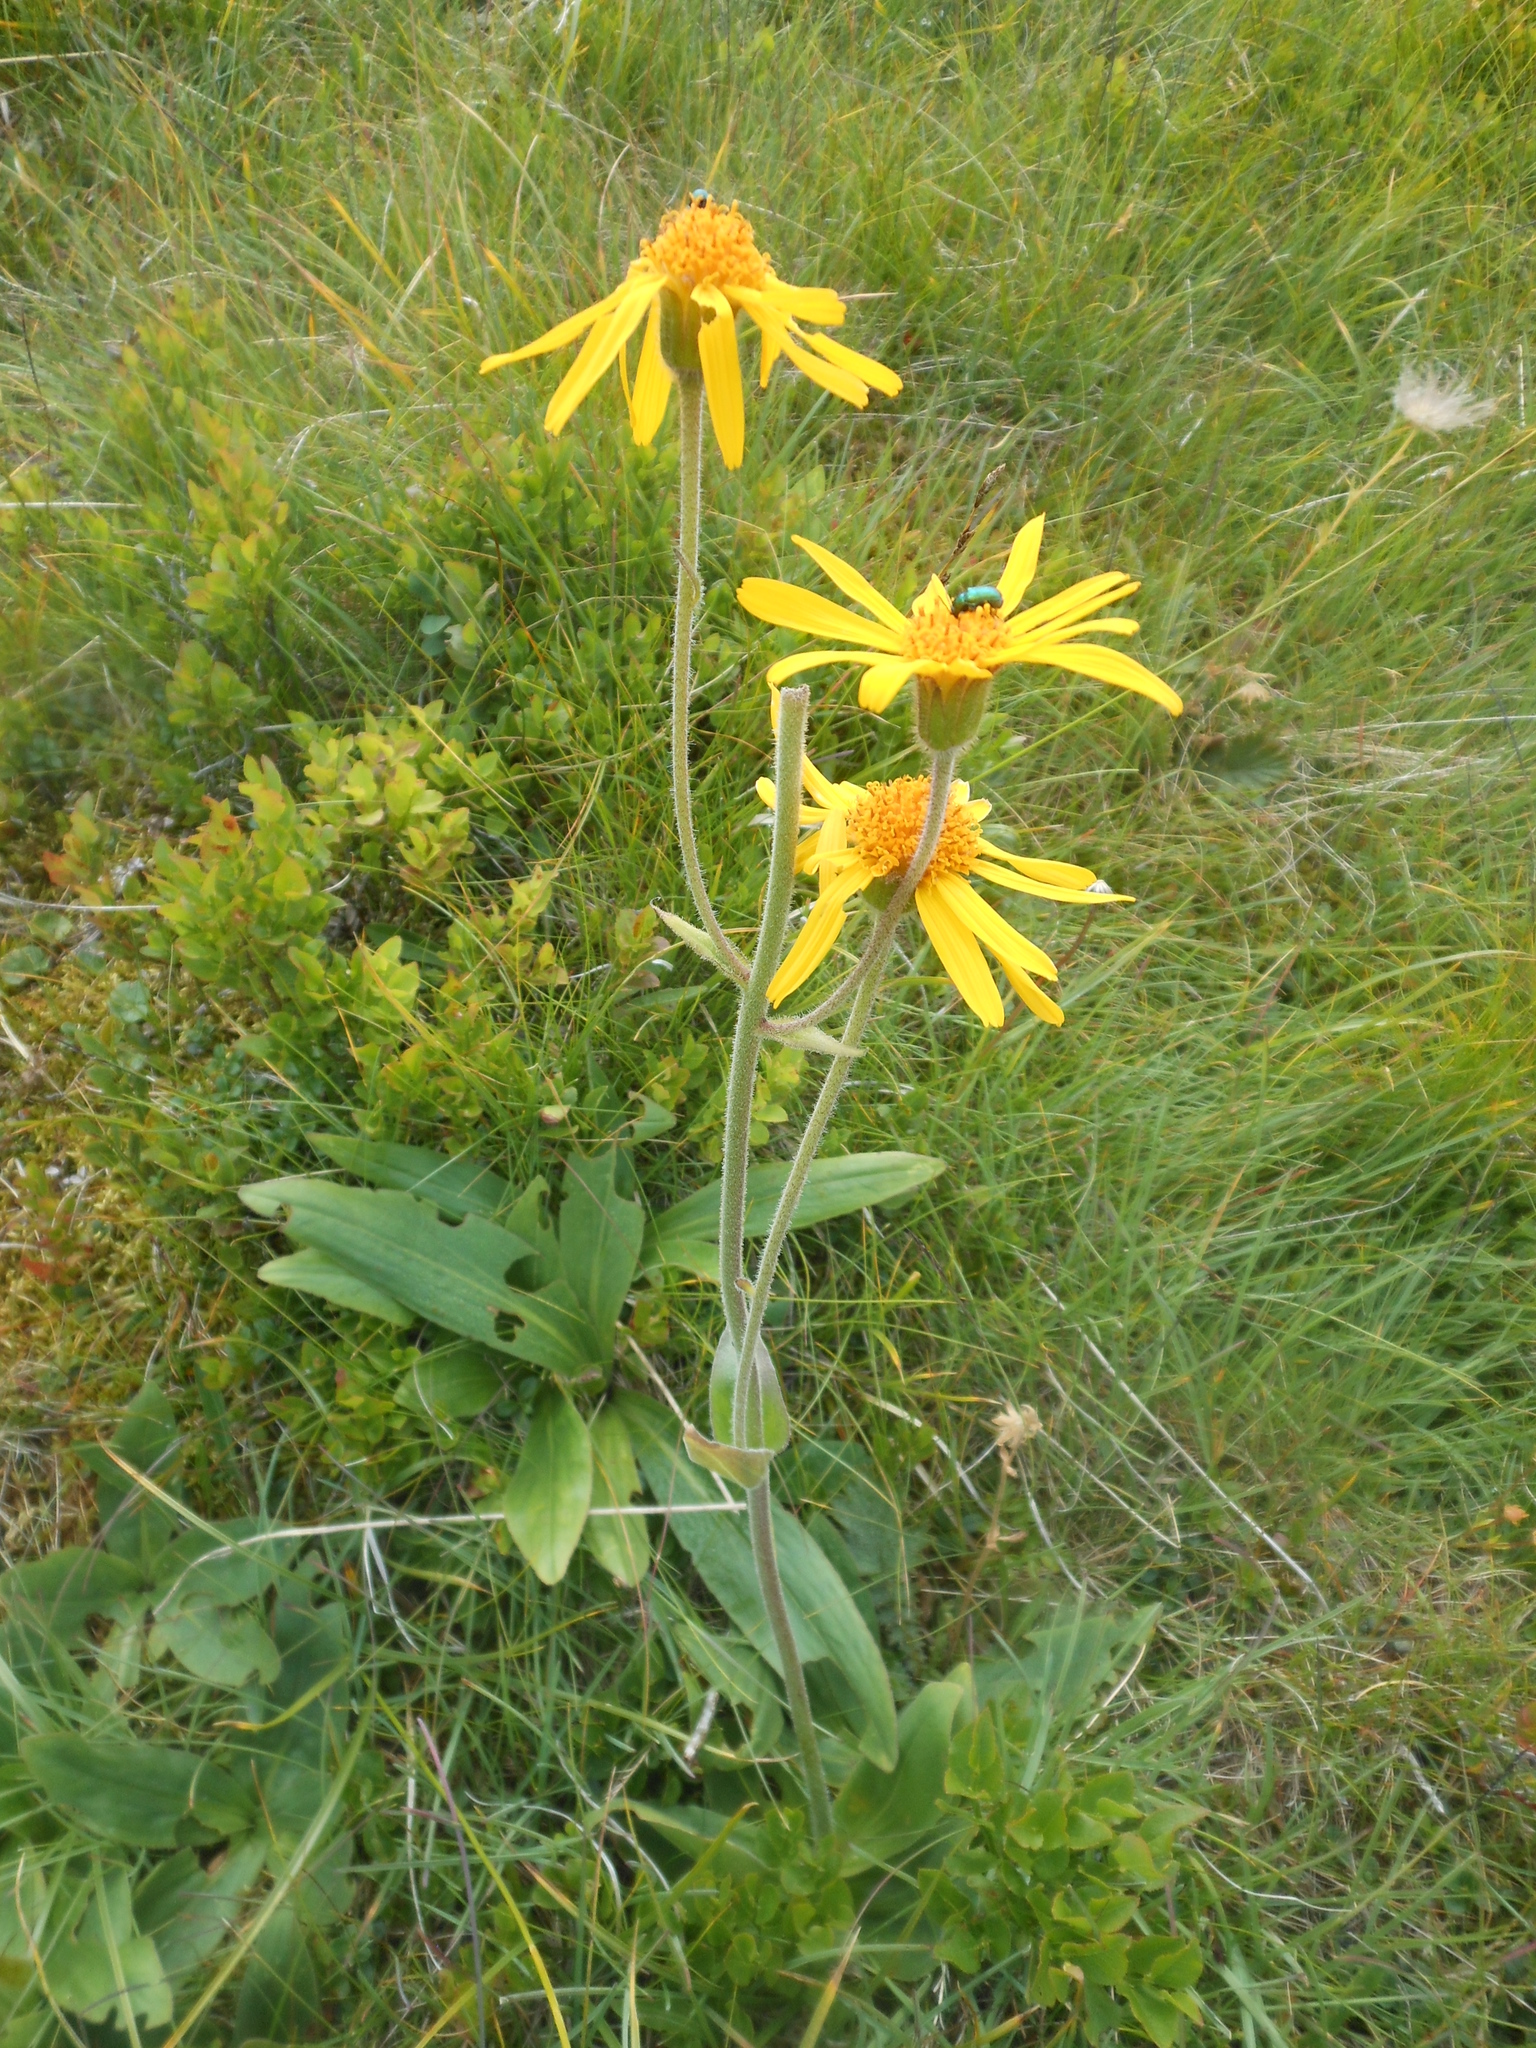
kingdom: Plantae
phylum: Tracheophyta
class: Magnoliopsida
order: Asterales
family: Asteraceae
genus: Arnica
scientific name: Arnica montana
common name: Leopard's bane
